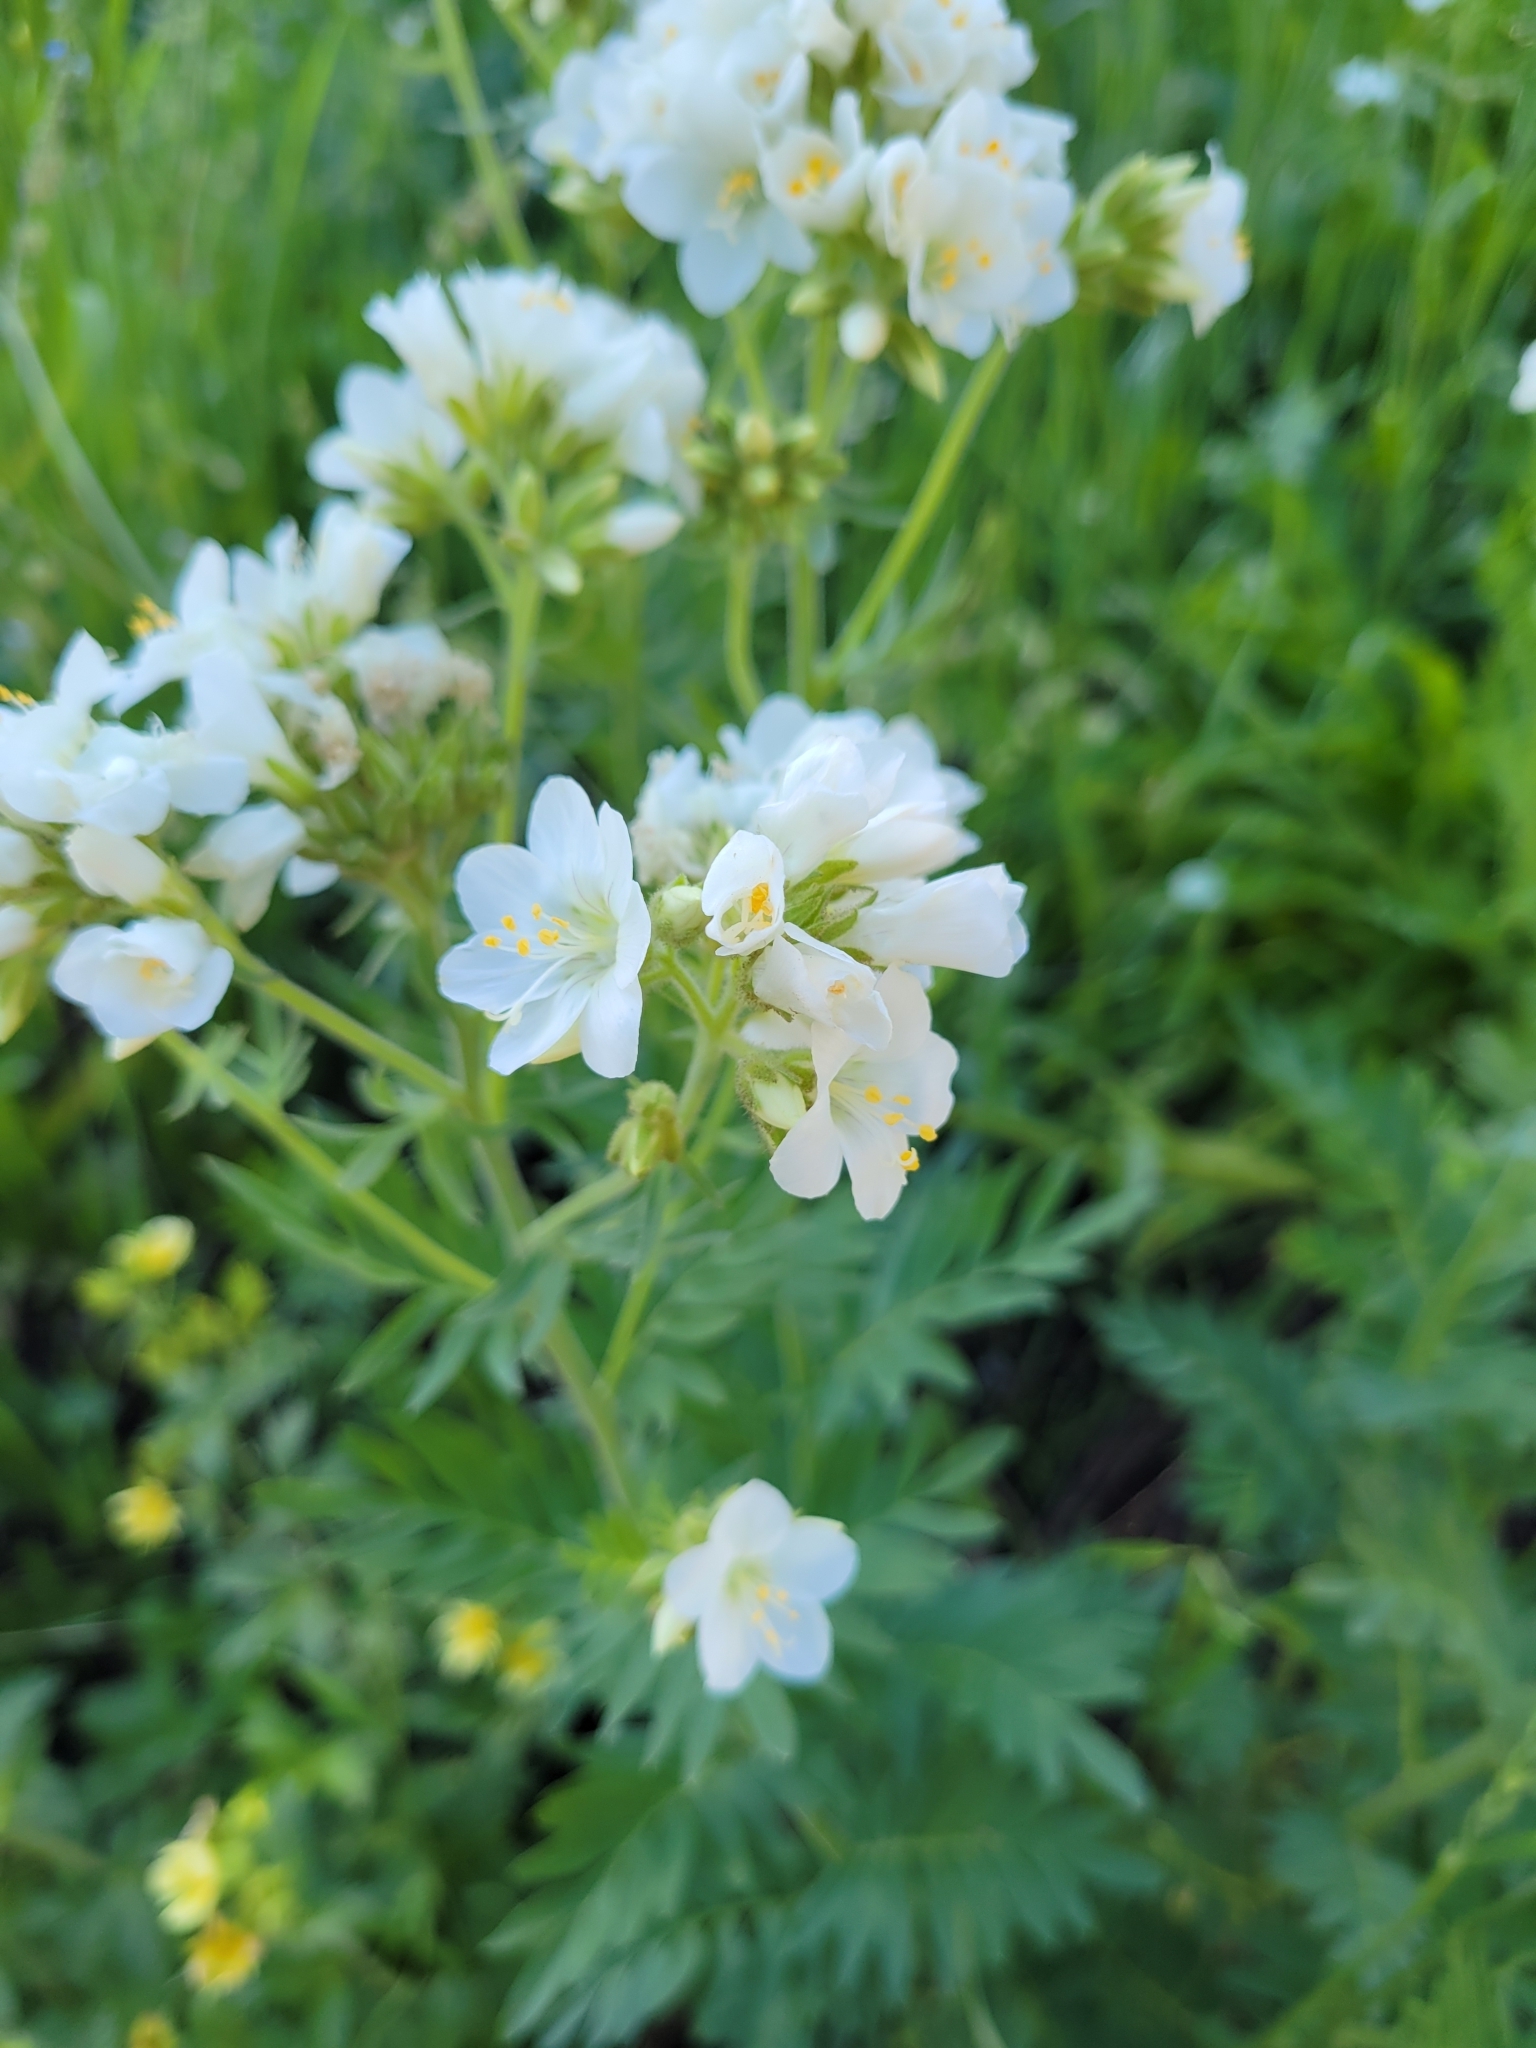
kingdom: Plantae
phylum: Tracheophyta
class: Magnoliopsida
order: Ericales
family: Polemoniaceae
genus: Polemonium
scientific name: Polemonium foliosissimum
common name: Leafy jacob's-ladder
